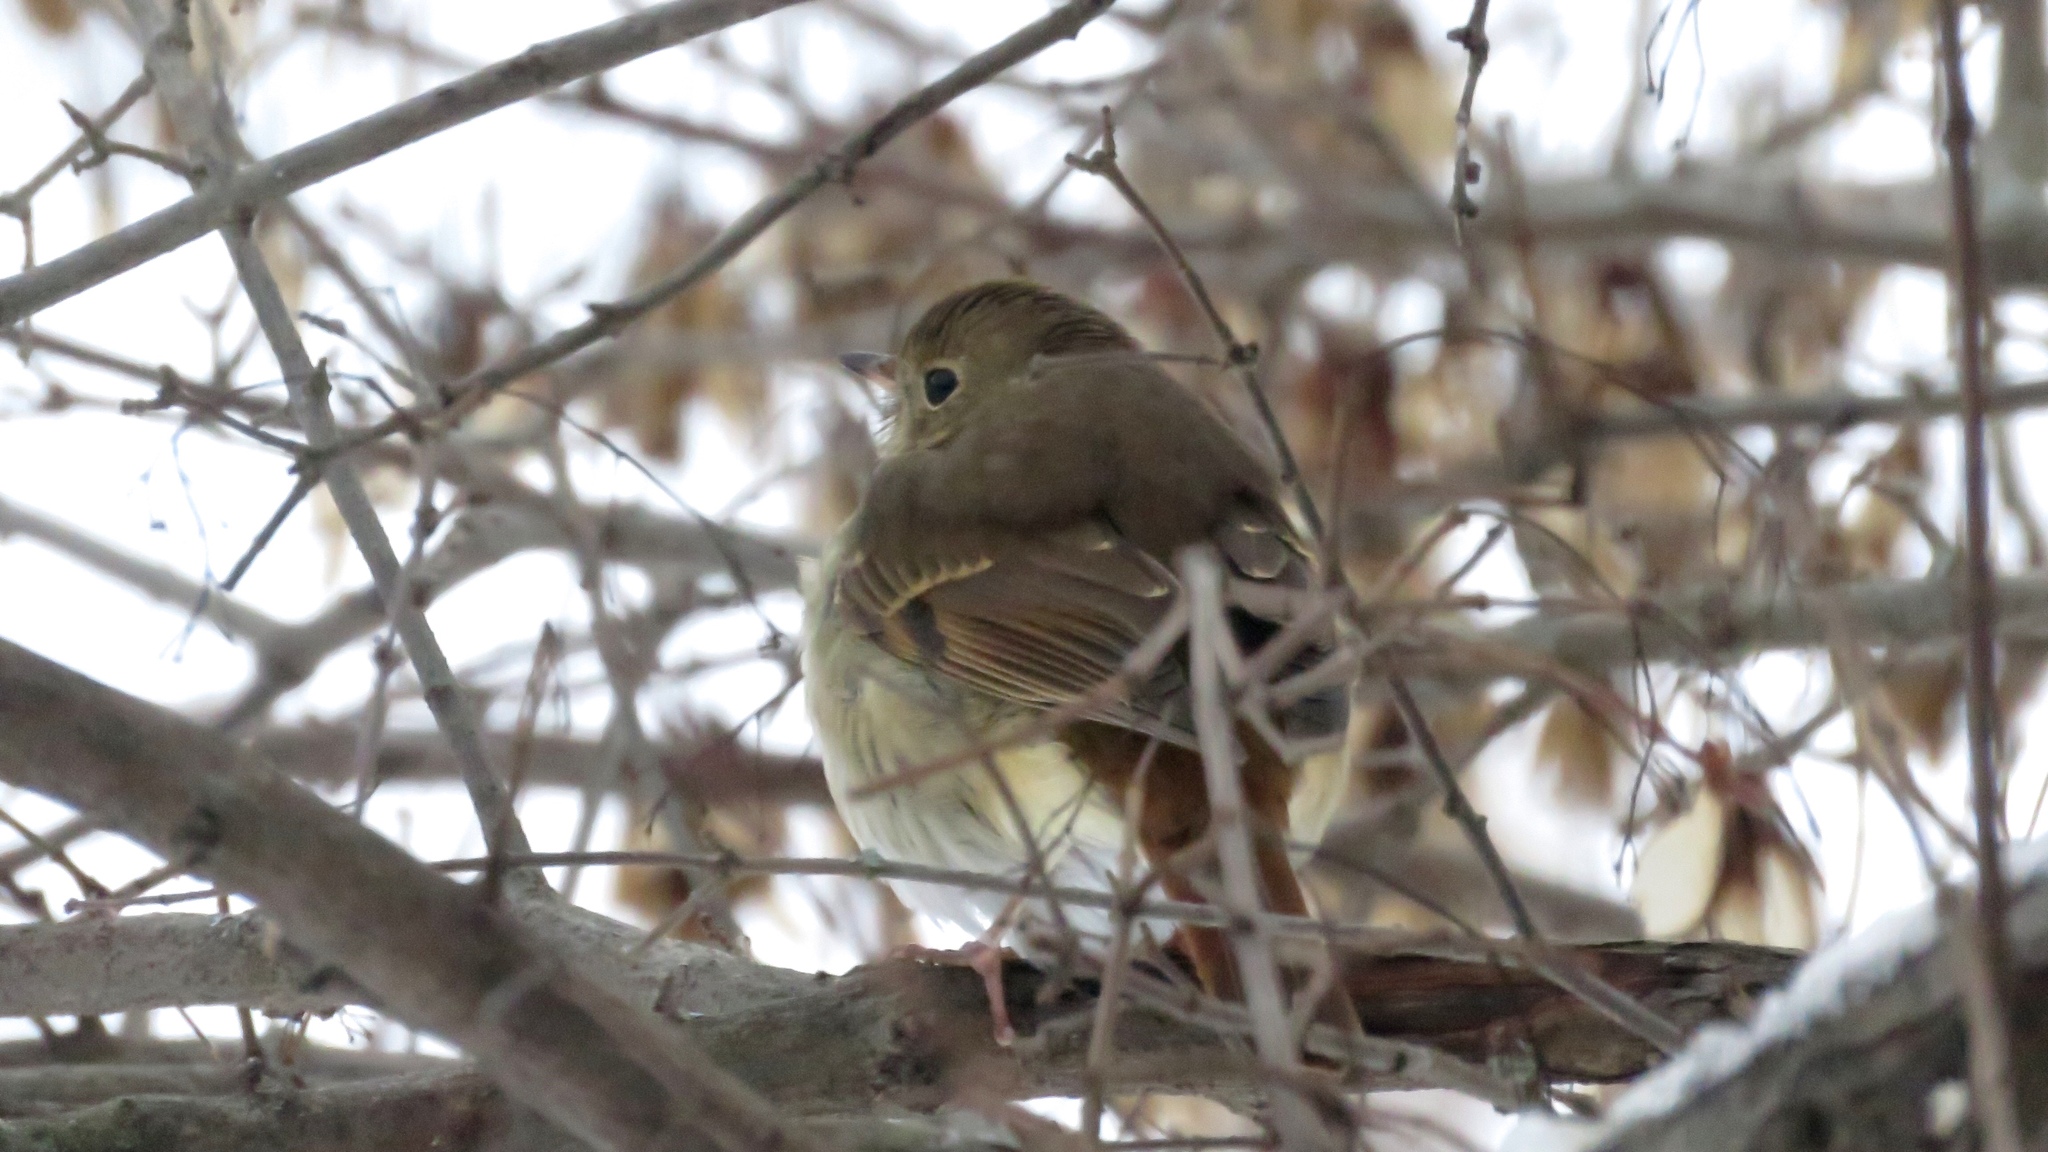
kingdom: Animalia
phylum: Chordata
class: Aves
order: Passeriformes
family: Turdidae
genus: Catharus
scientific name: Catharus guttatus
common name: Hermit thrush
